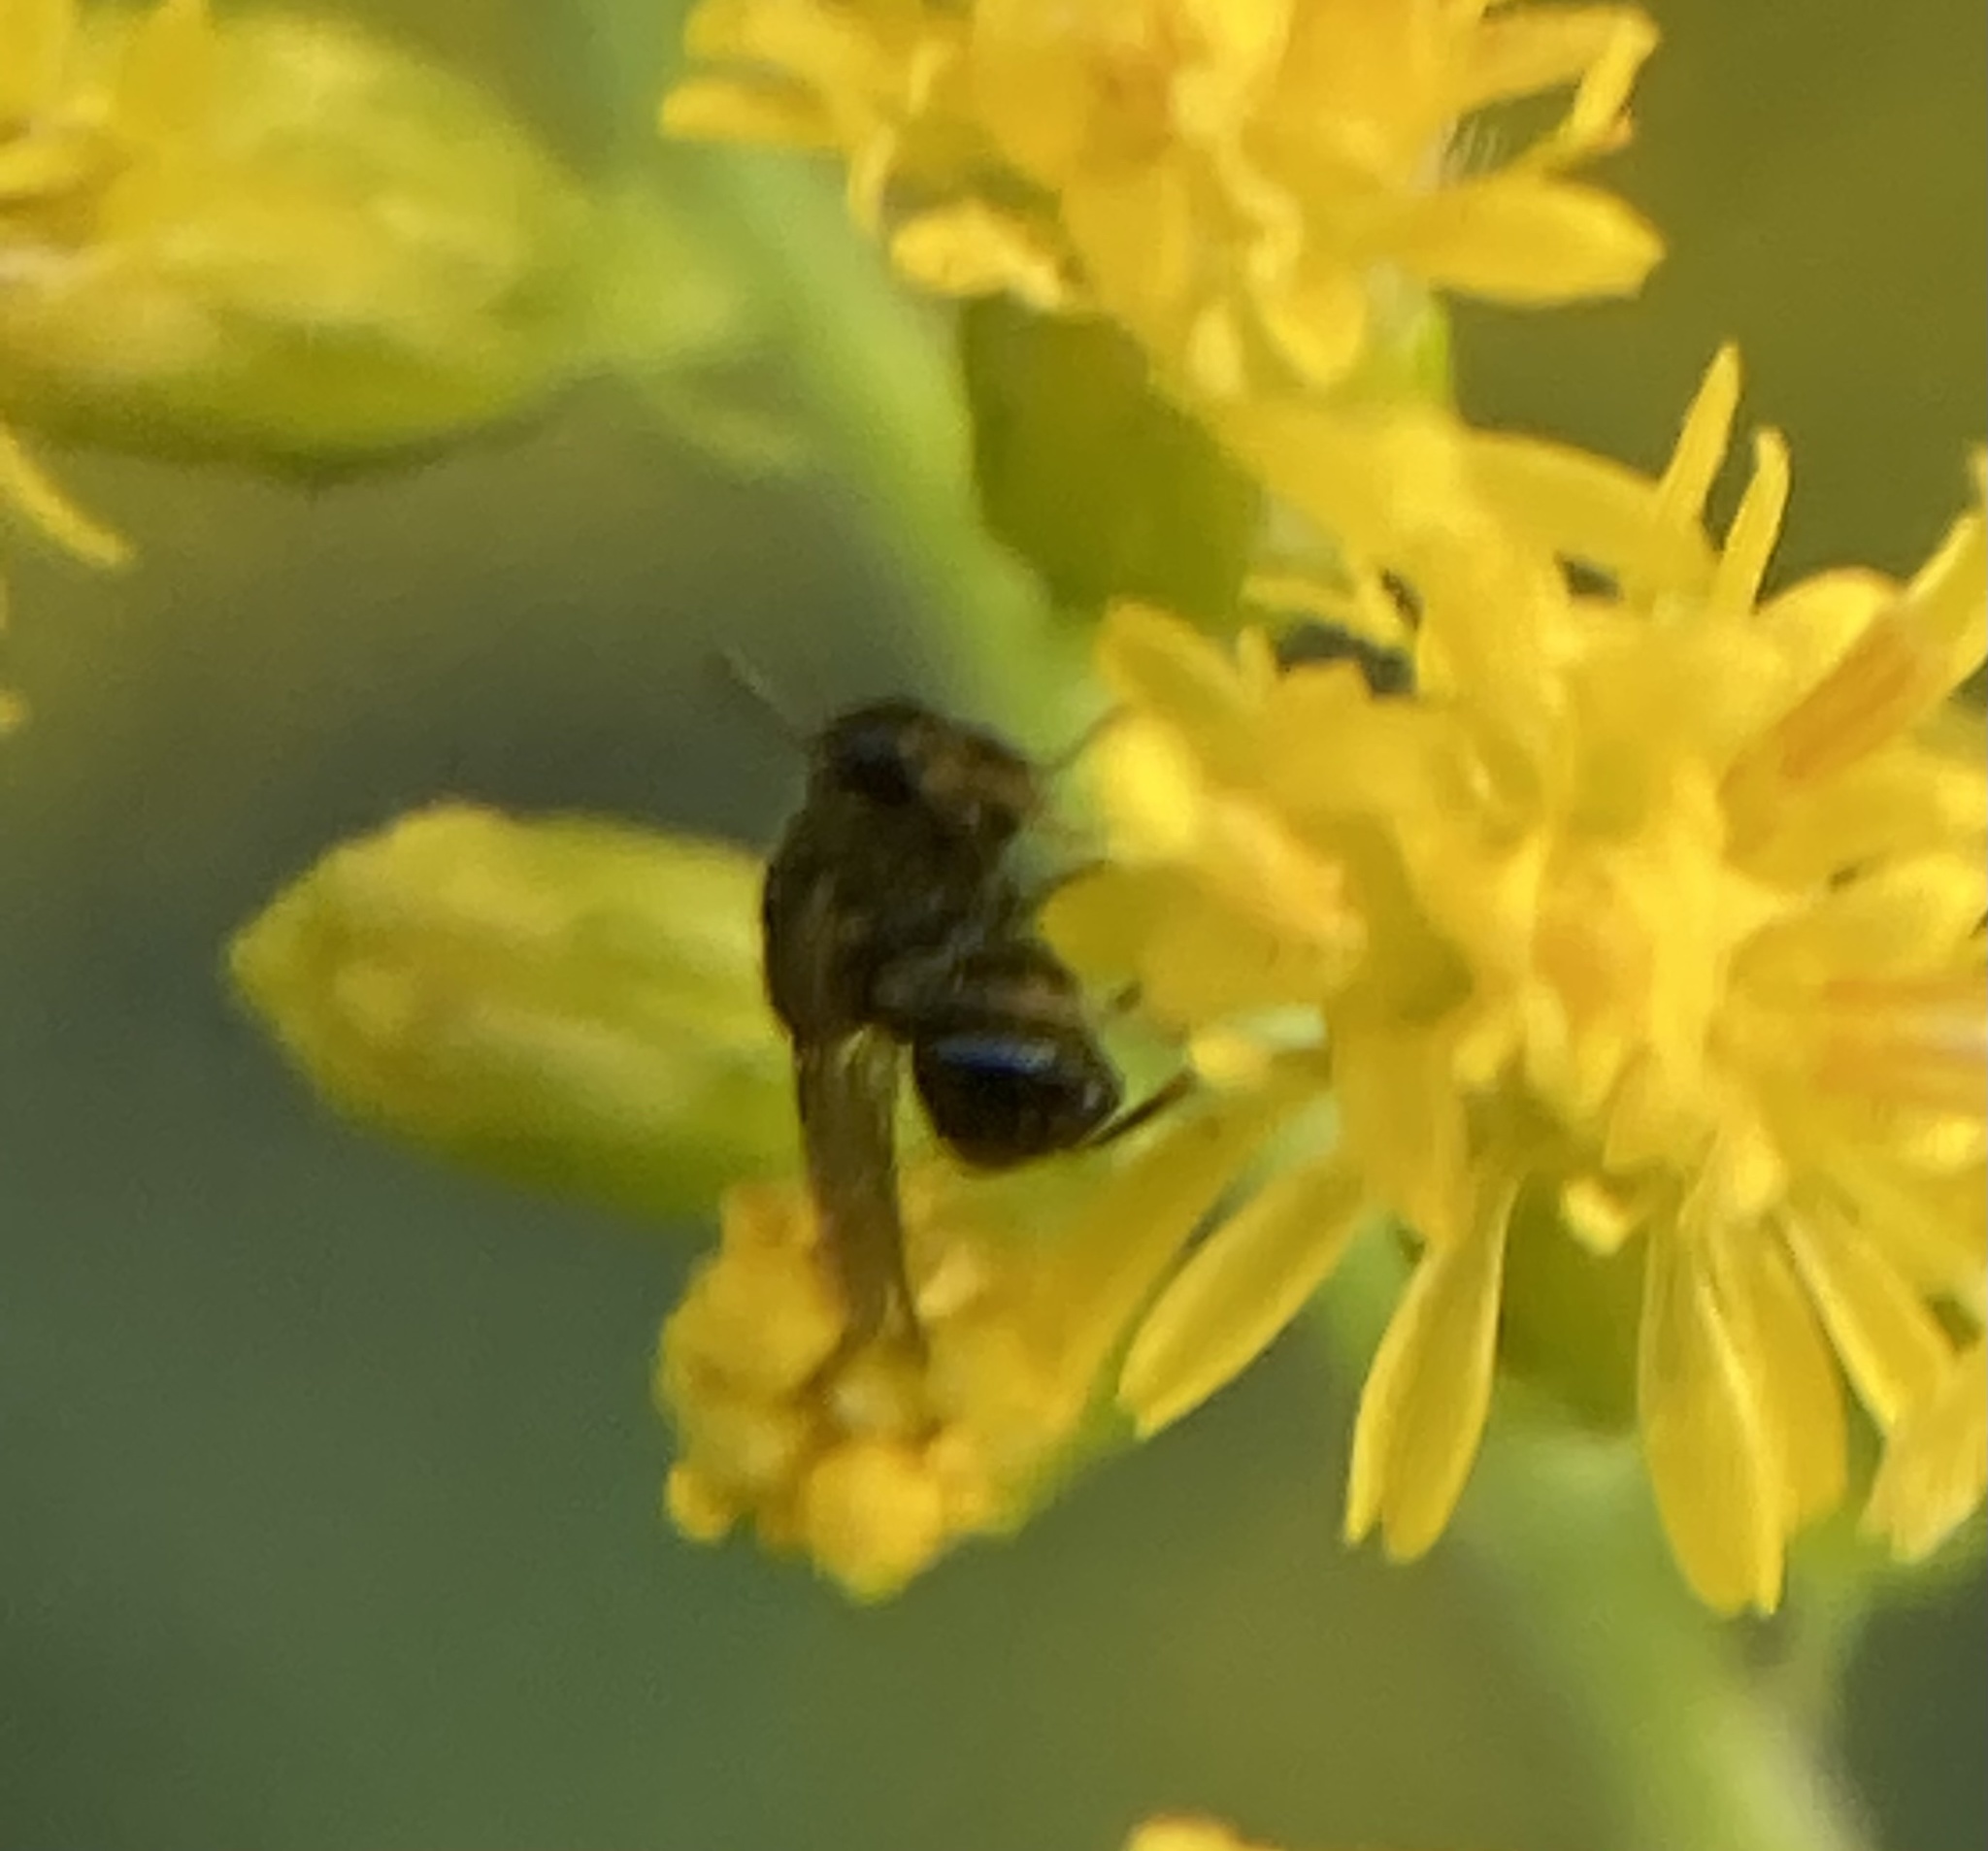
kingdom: Animalia
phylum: Arthropoda
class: Insecta
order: Hymenoptera
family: Perilampidae
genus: Perilampus
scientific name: Perilampus
